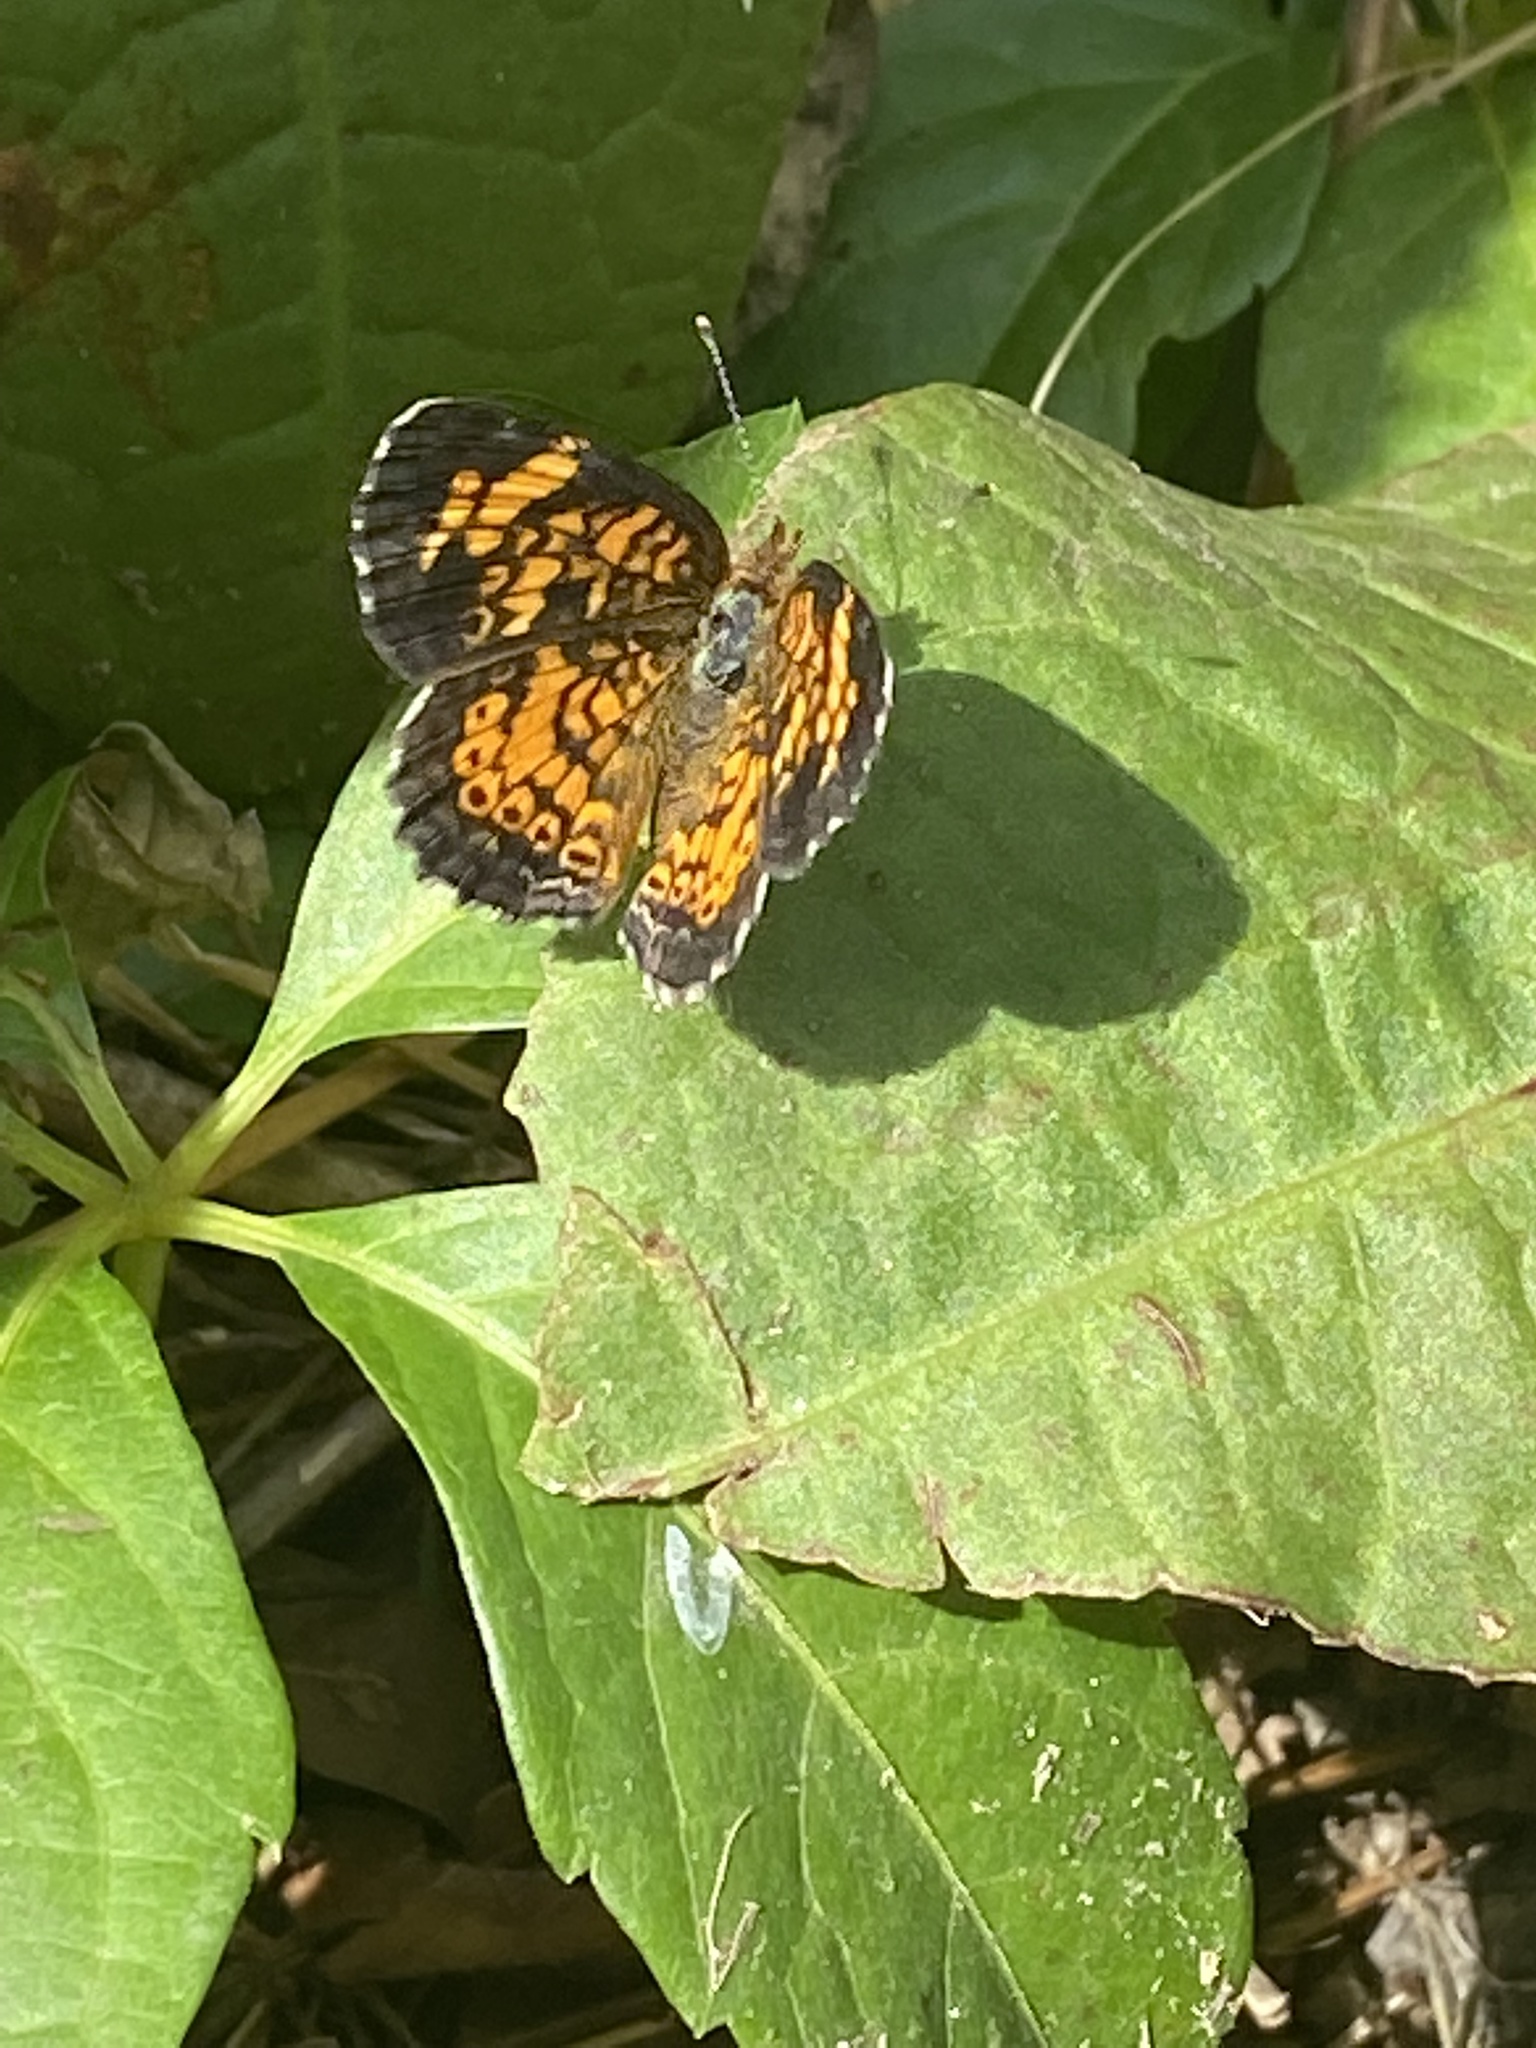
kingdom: Animalia
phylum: Arthropoda
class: Insecta
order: Lepidoptera
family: Nymphalidae
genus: Phyciodes
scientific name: Phyciodes tharos
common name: Pearl crescent
